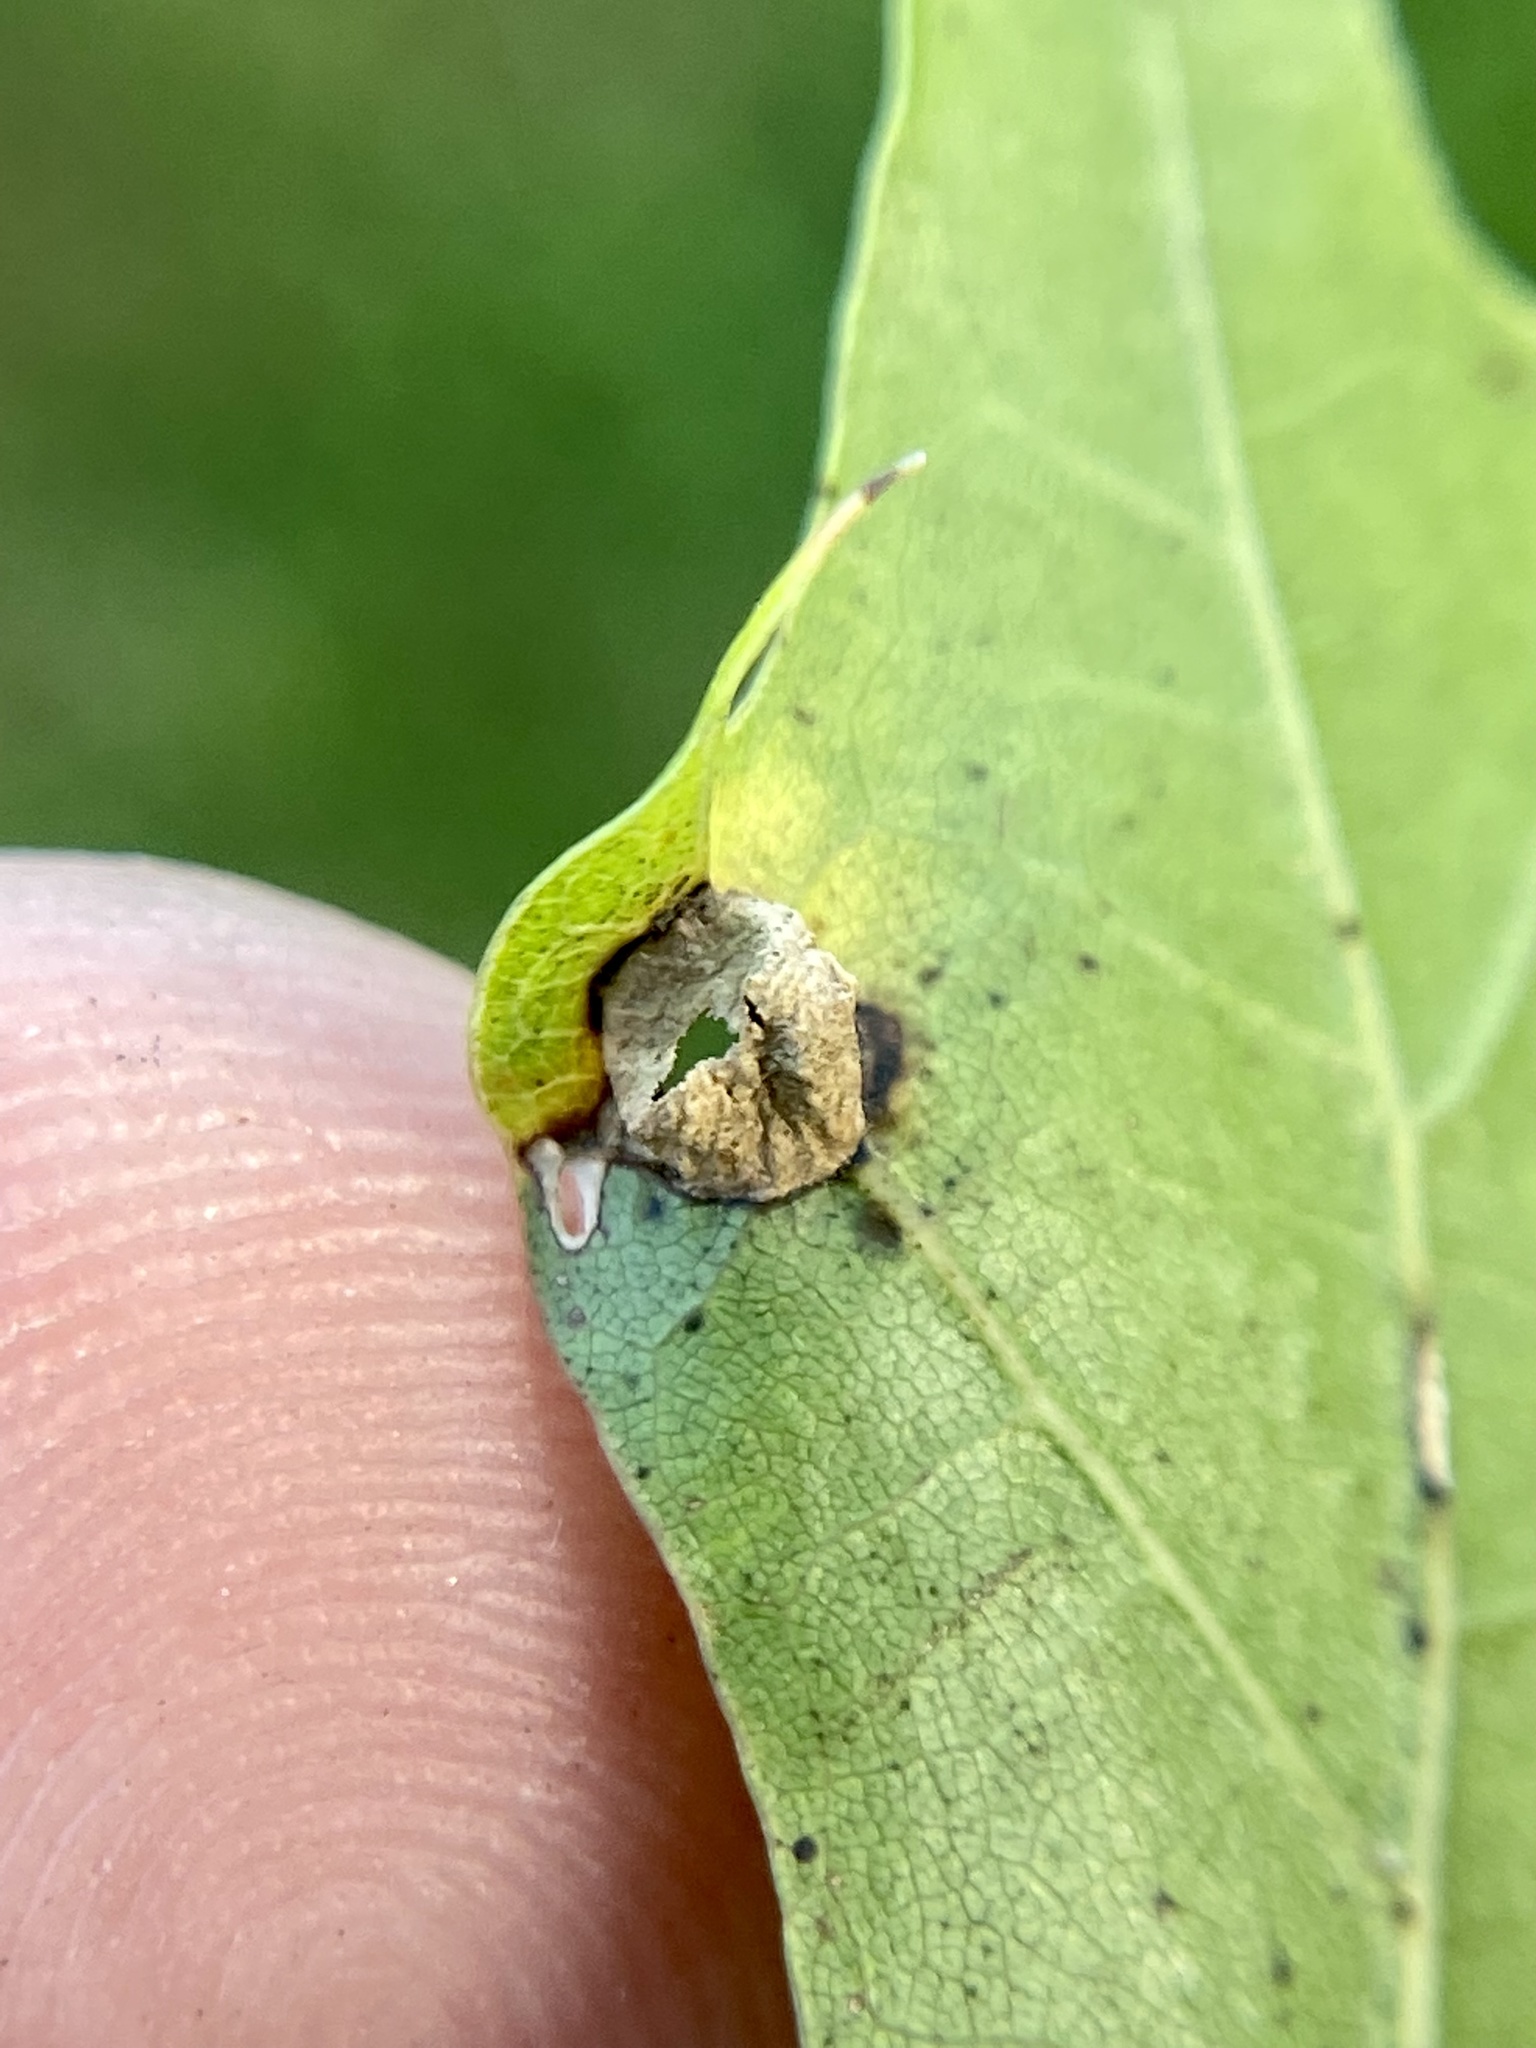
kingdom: Animalia
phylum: Arthropoda
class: Insecta
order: Hymenoptera
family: Cynipidae
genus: Dryocosmus
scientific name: Dryocosmus
